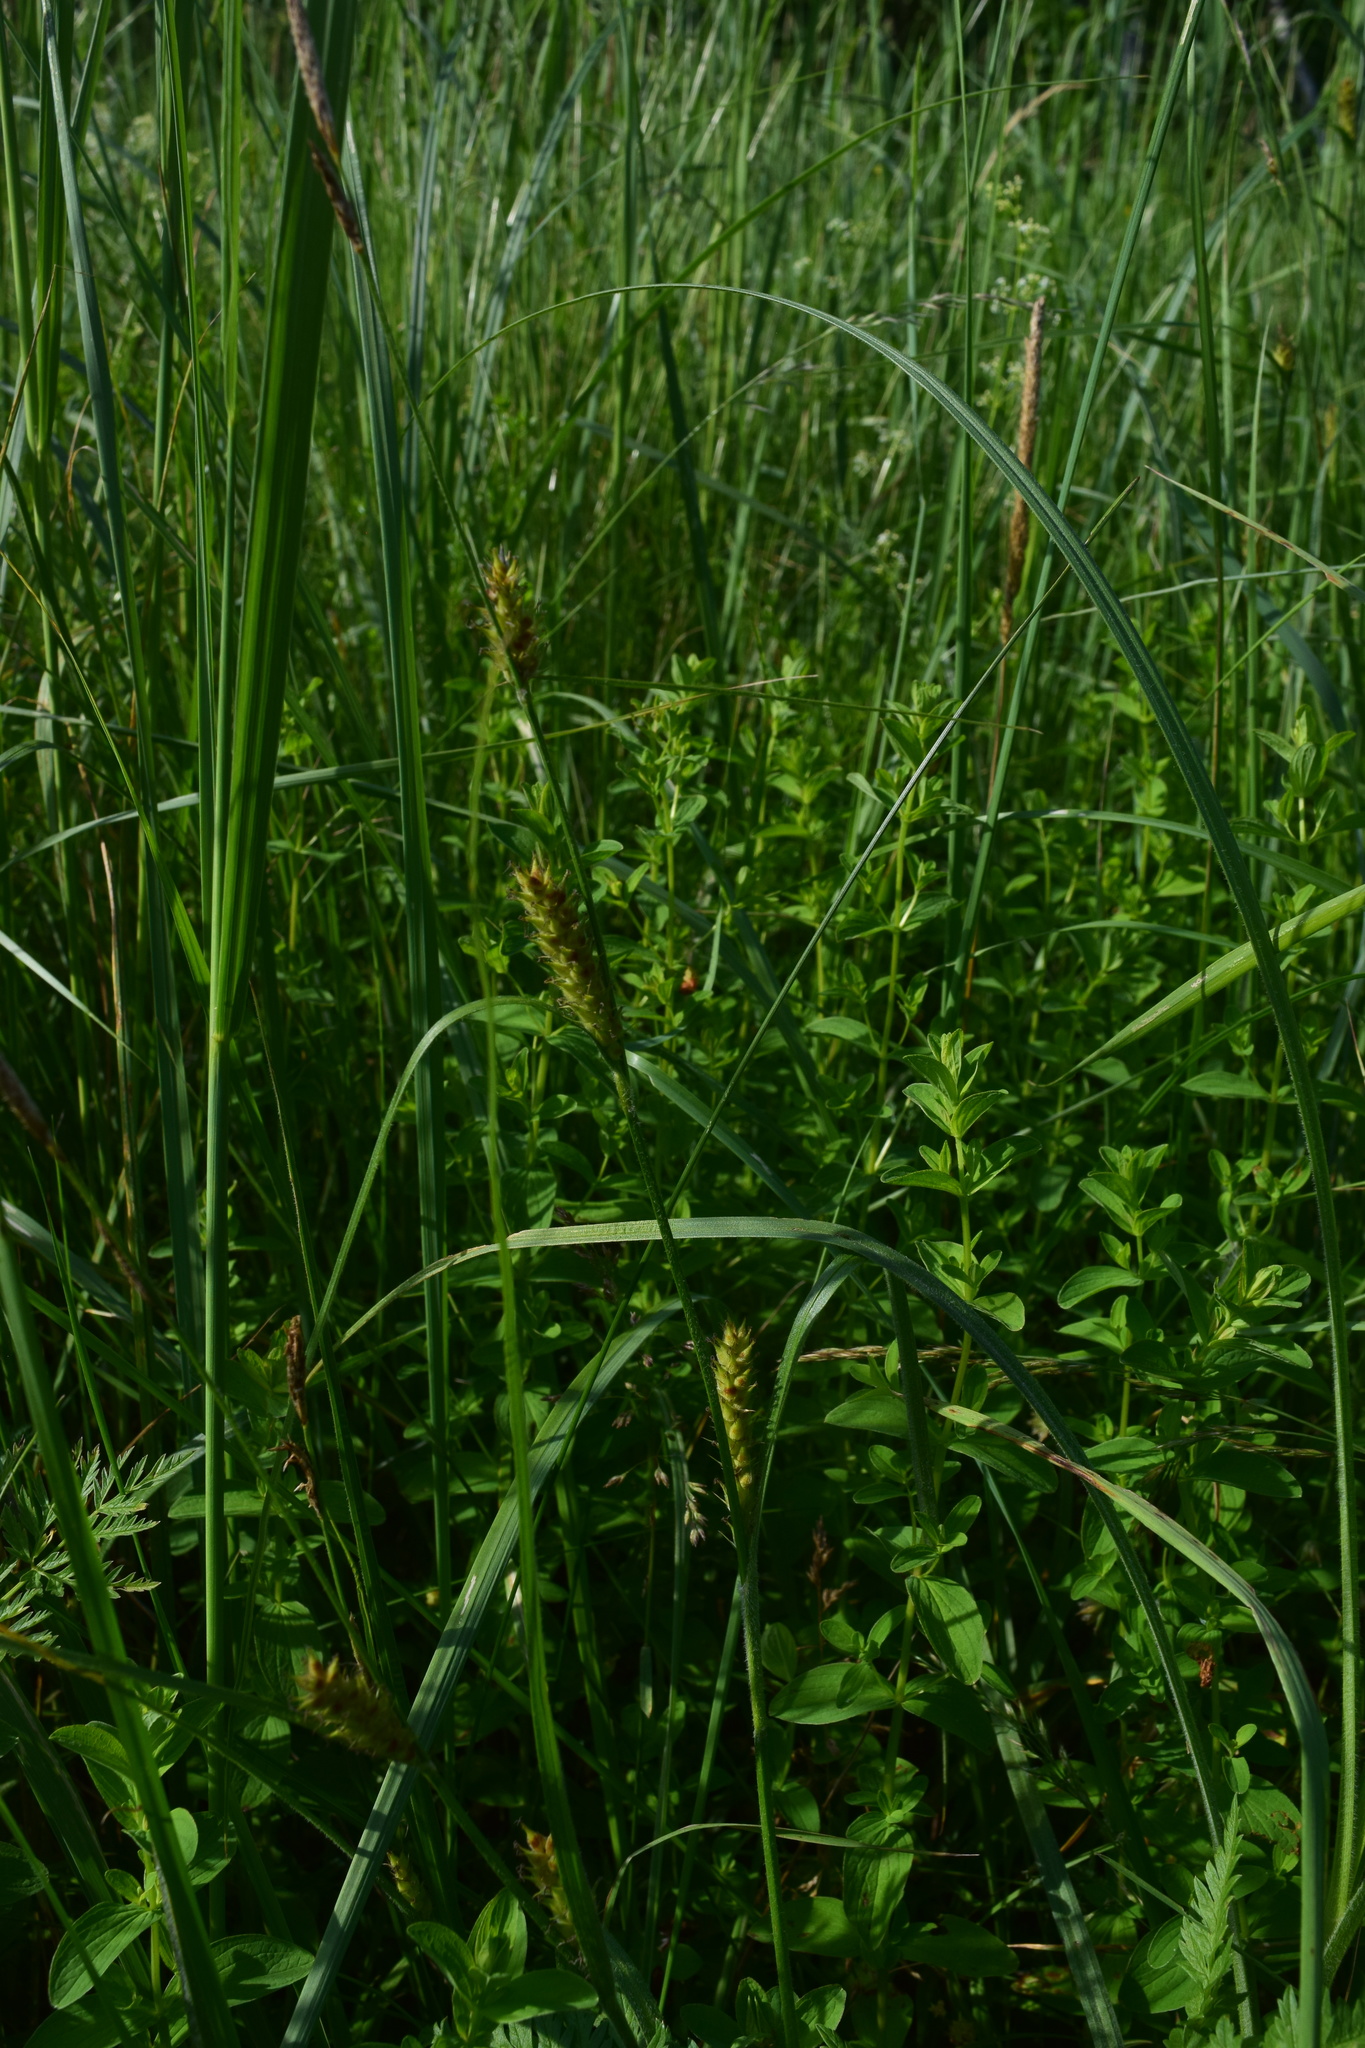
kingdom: Plantae
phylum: Tracheophyta
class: Liliopsida
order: Poales
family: Cyperaceae
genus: Carex
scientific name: Carex hirta
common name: Hairy sedge
